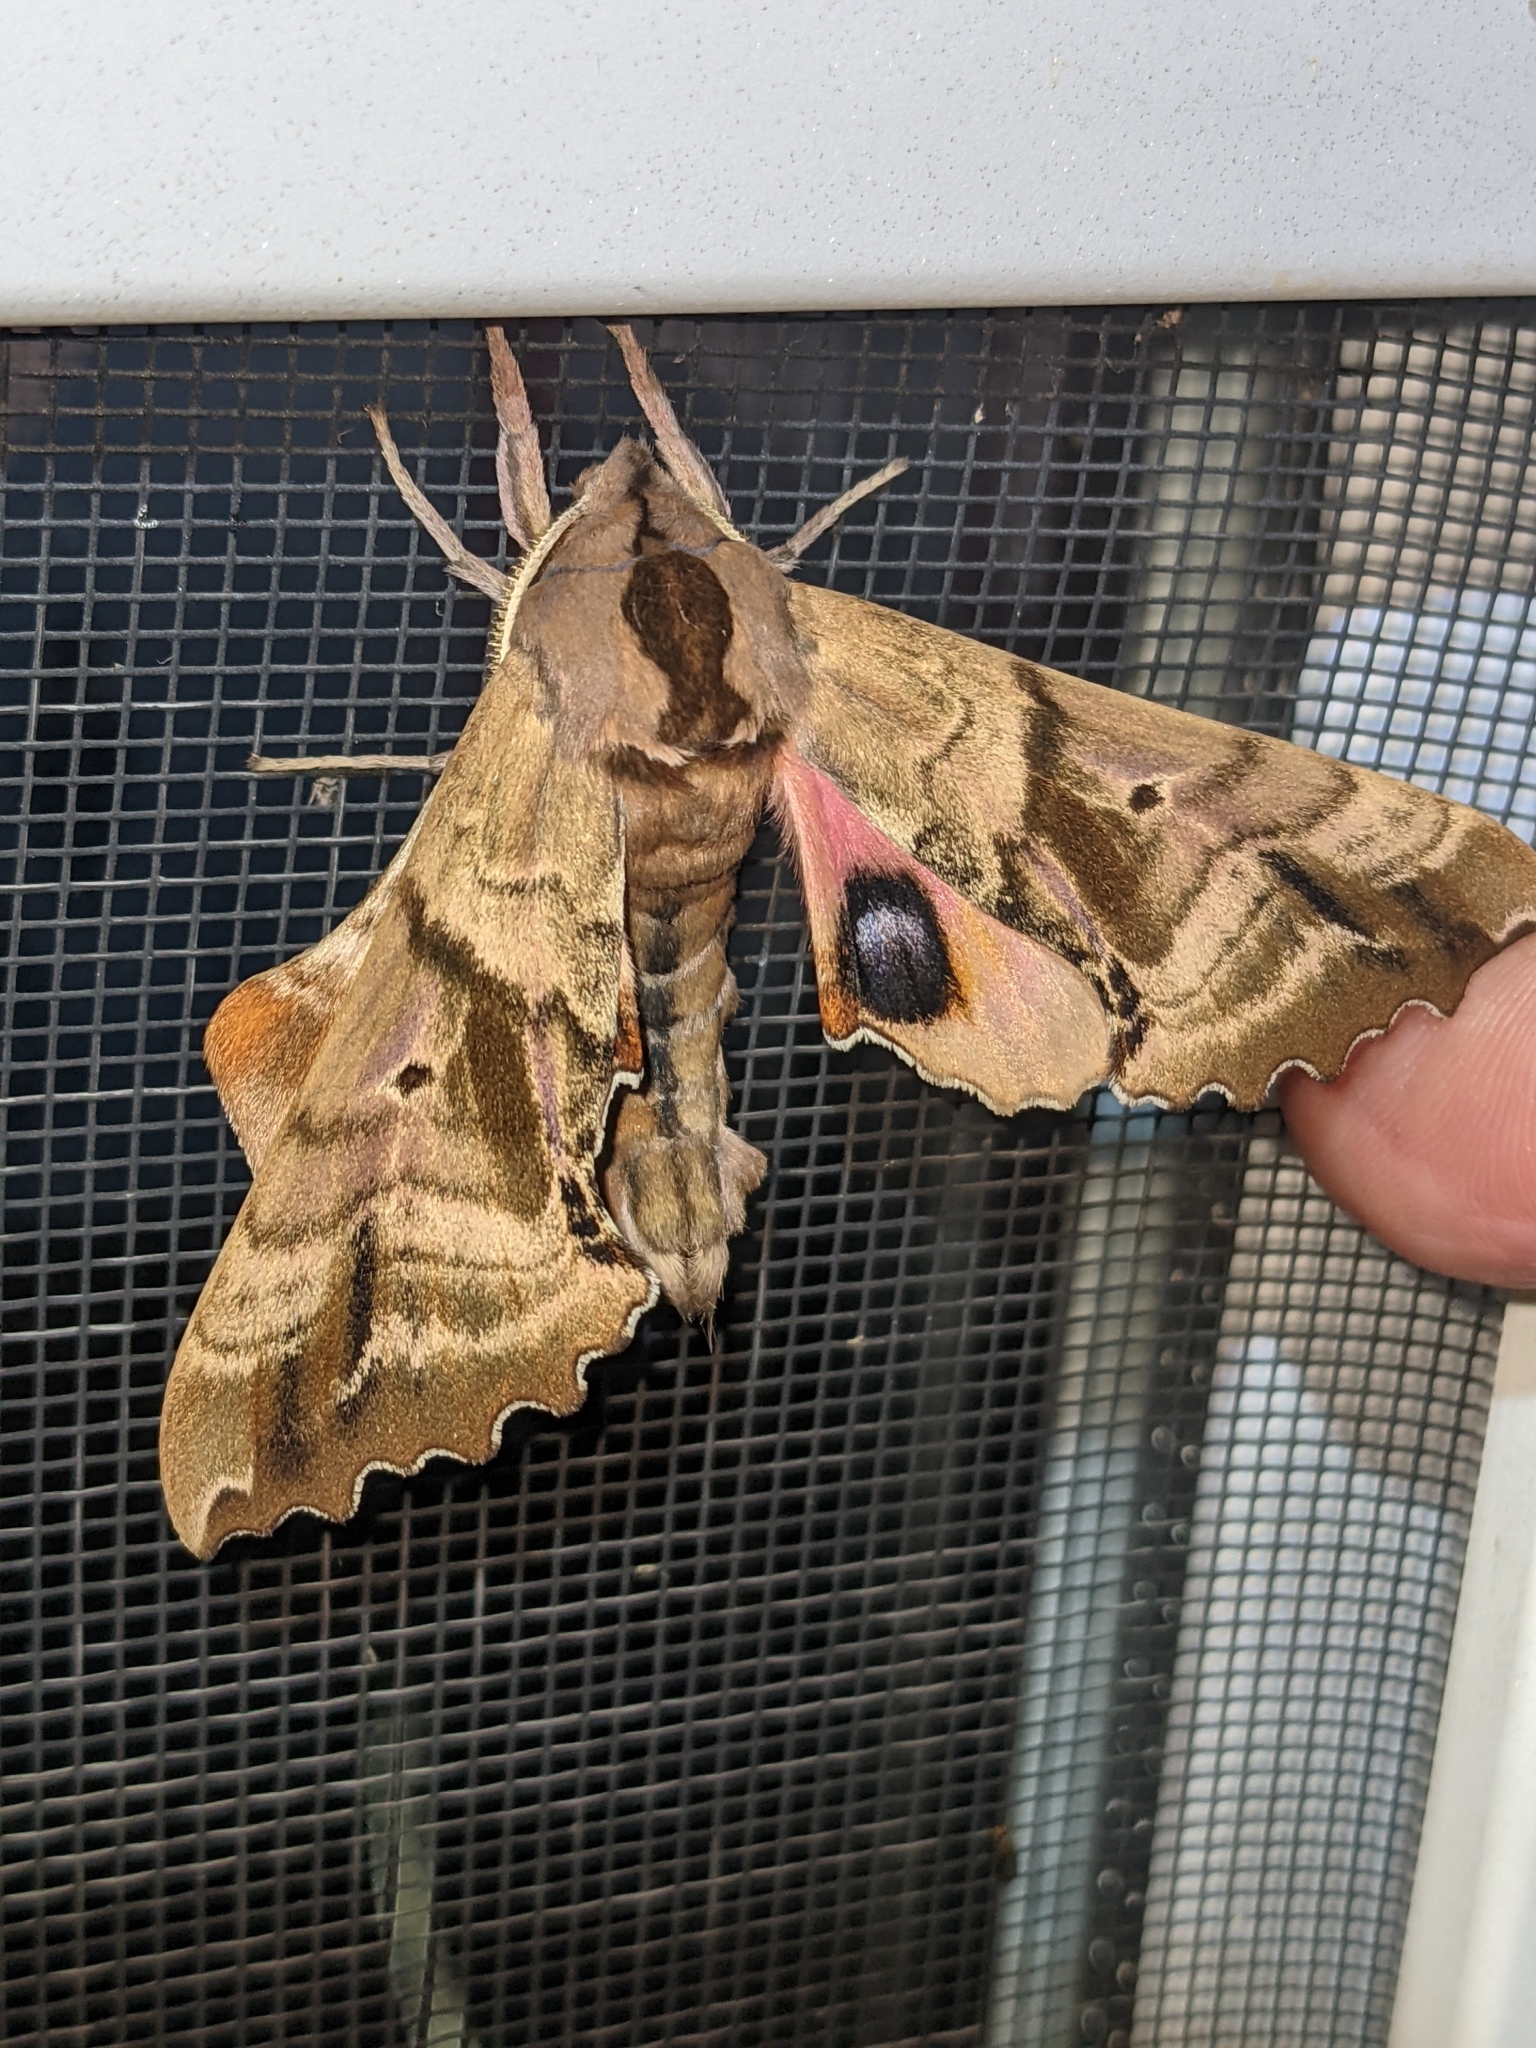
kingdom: Animalia
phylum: Arthropoda
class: Insecta
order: Lepidoptera
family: Sphingidae
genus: Paonias
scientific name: Paonias excaecata
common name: Blind-eyed sphinx
